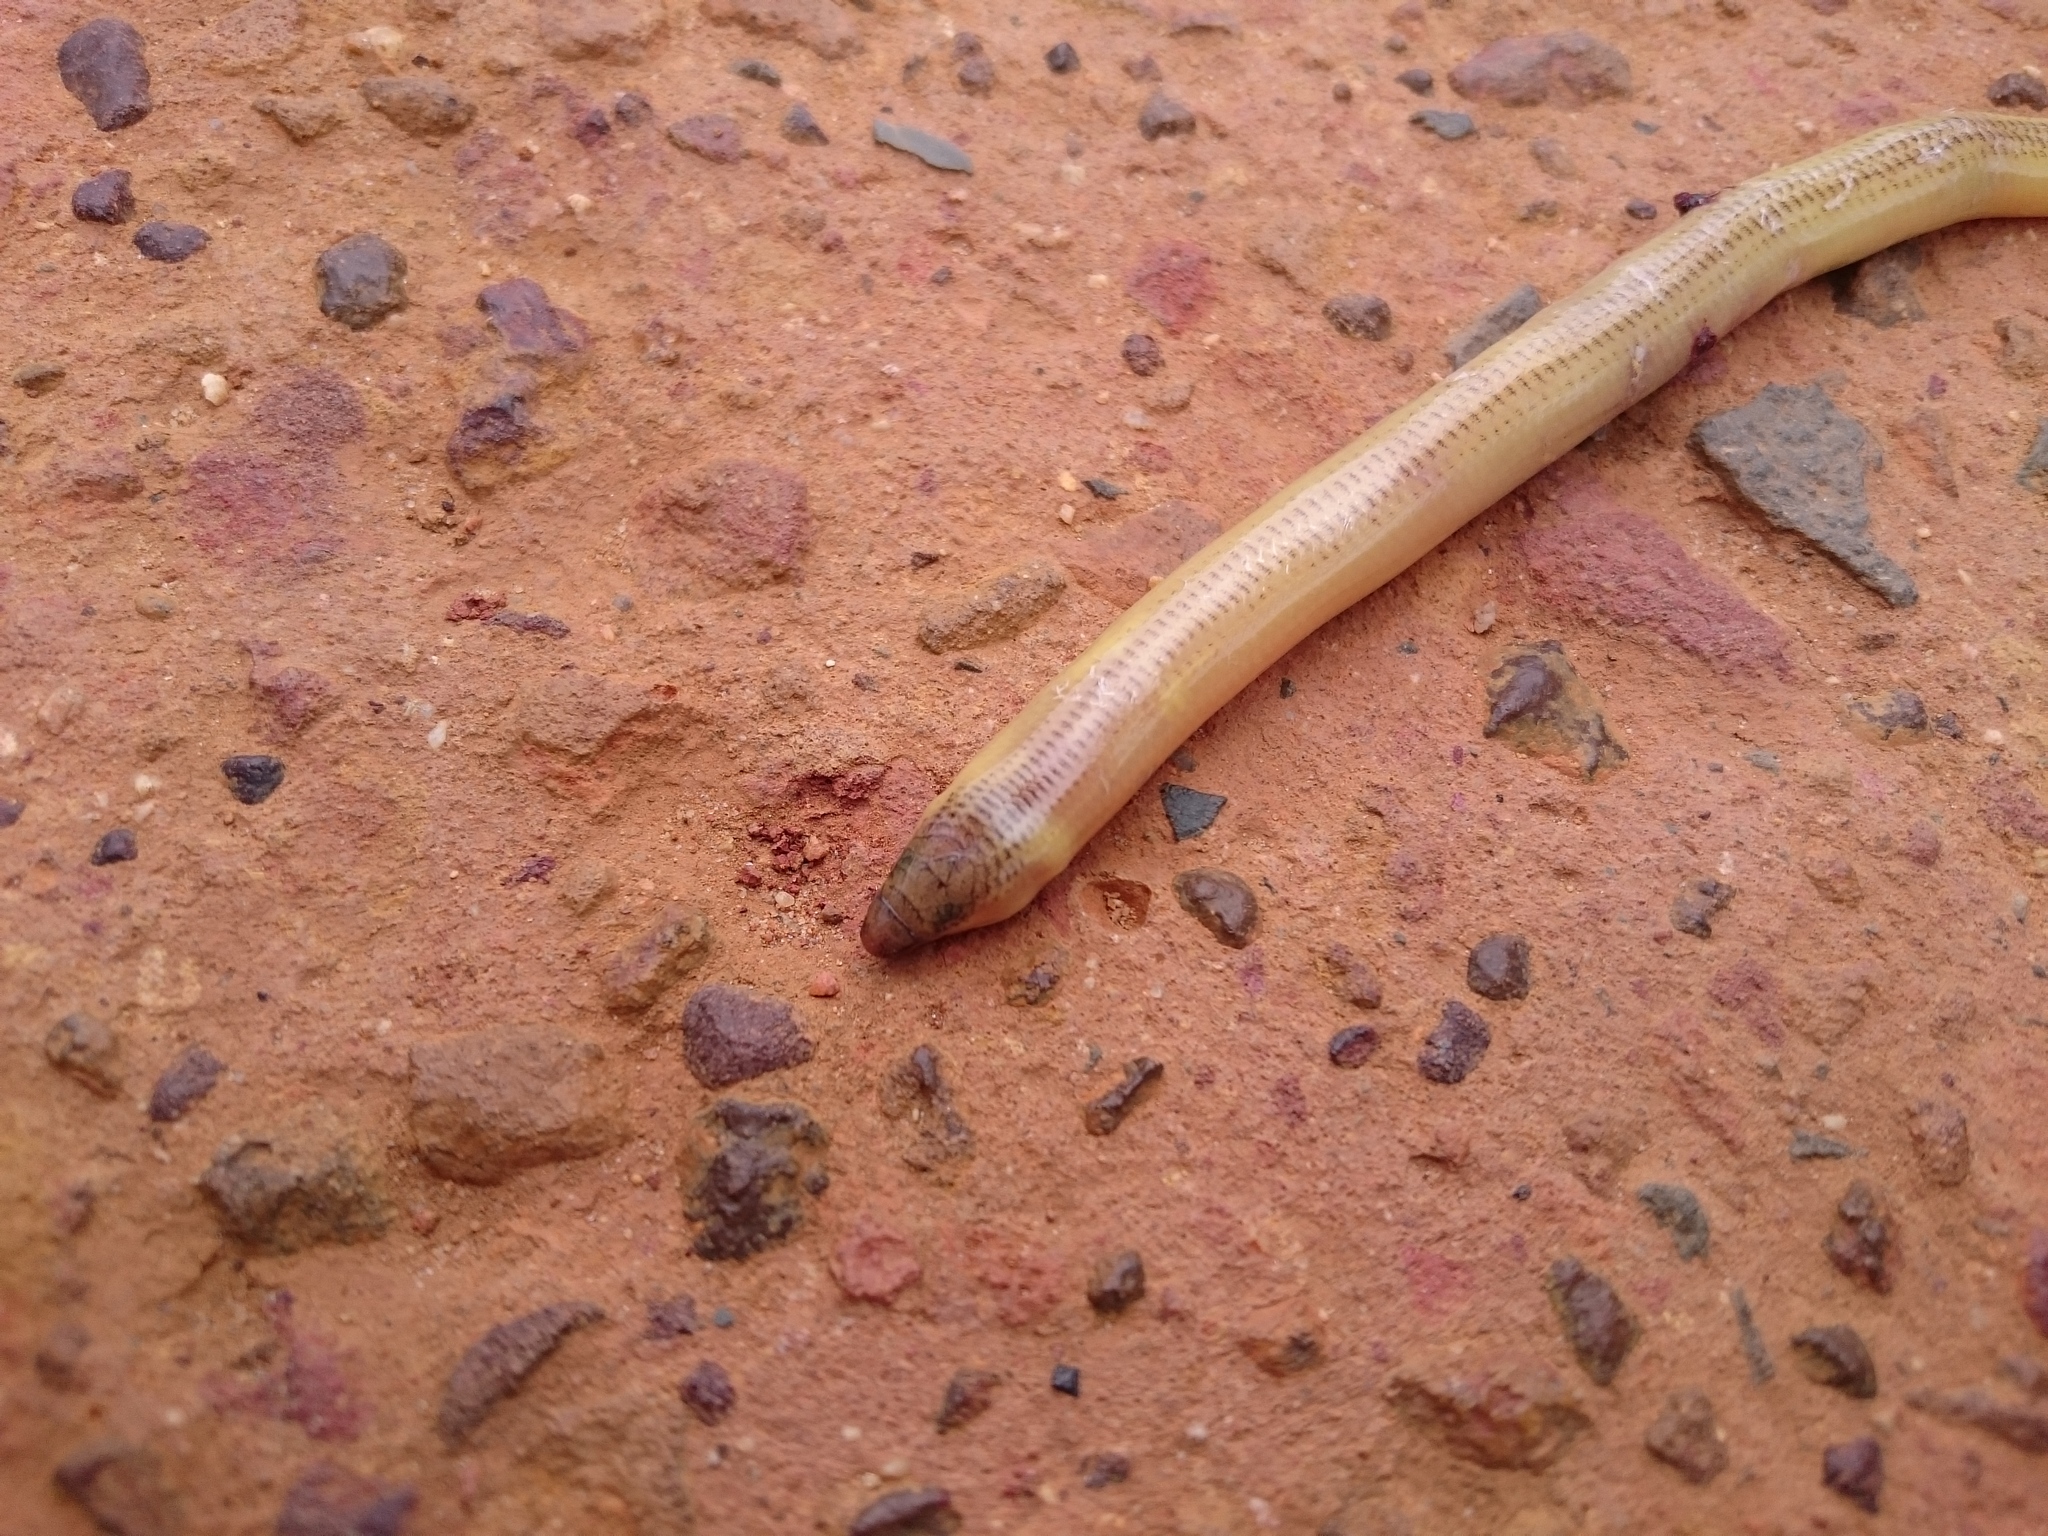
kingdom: Animalia
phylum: Chordata
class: Squamata
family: Scincidae
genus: Acontias
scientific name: Acontias meleagris
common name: Cape legless skink
